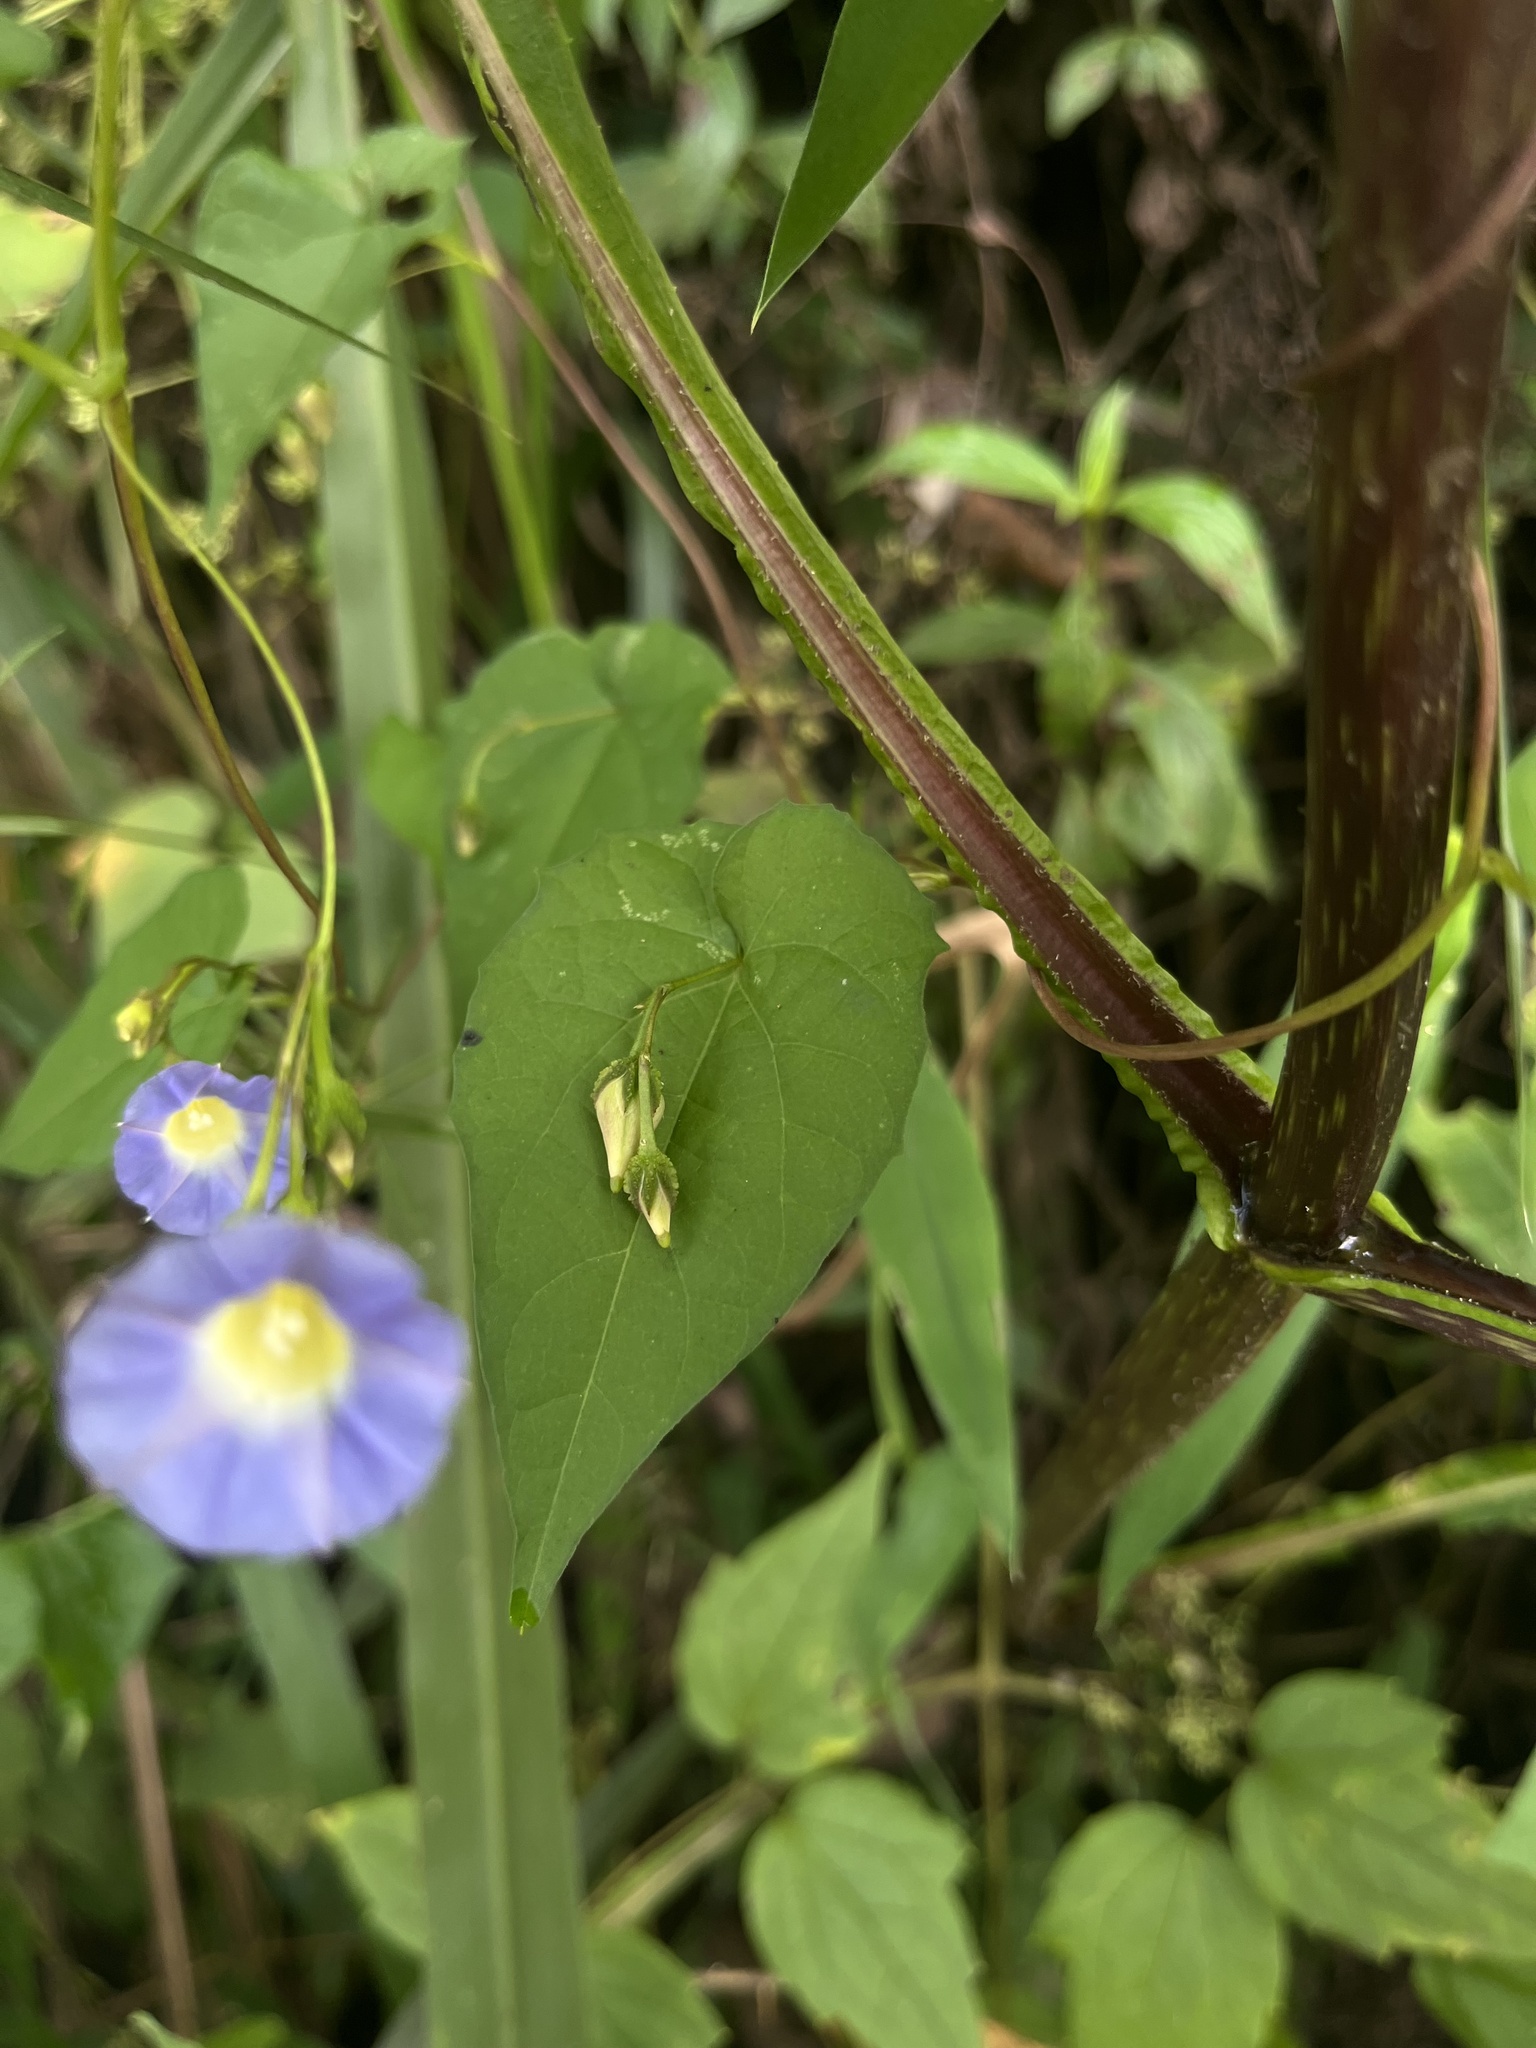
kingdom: Plantae
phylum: Tracheophyta
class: Magnoliopsida
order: Solanales
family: Convolvulaceae
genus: Ipomoea
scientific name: Ipomoea aristolochiifolia
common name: Aristolochia-leaved morning-glory
